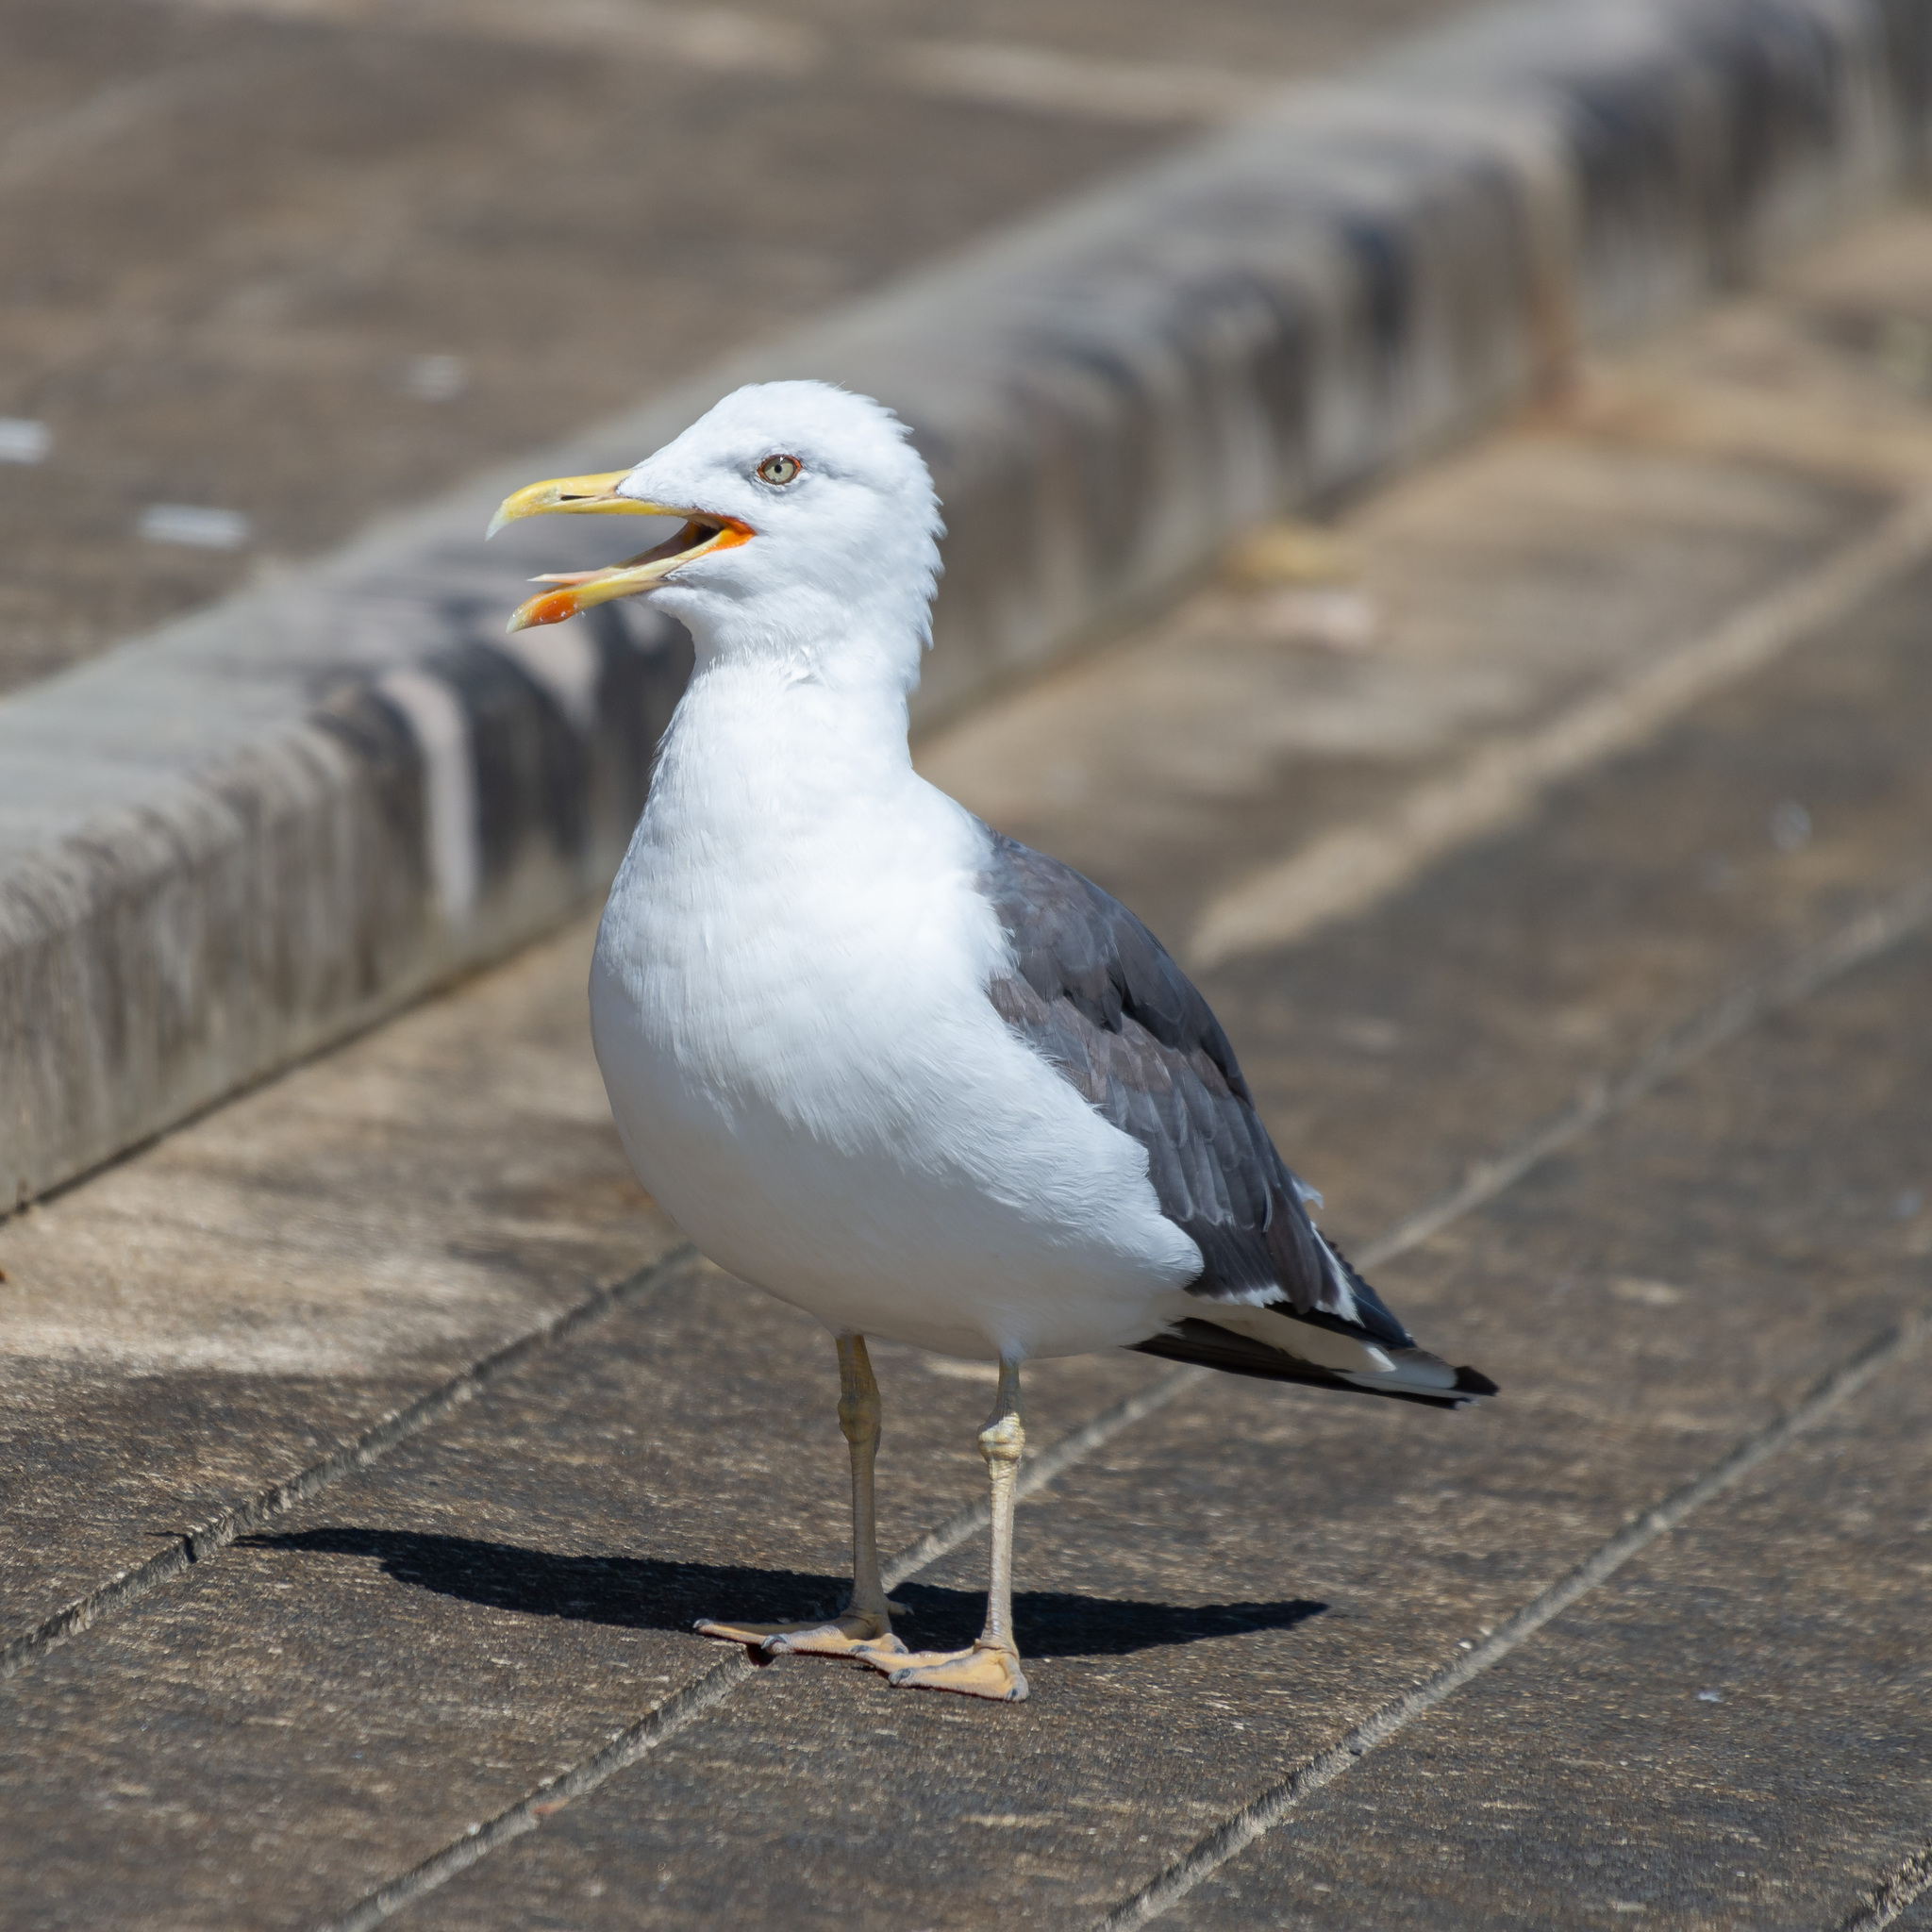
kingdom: Animalia
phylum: Chordata
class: Aves
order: Charadriiformes
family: Laridae
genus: Larus
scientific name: Larus fuscus
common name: Lesser black-backed gull
